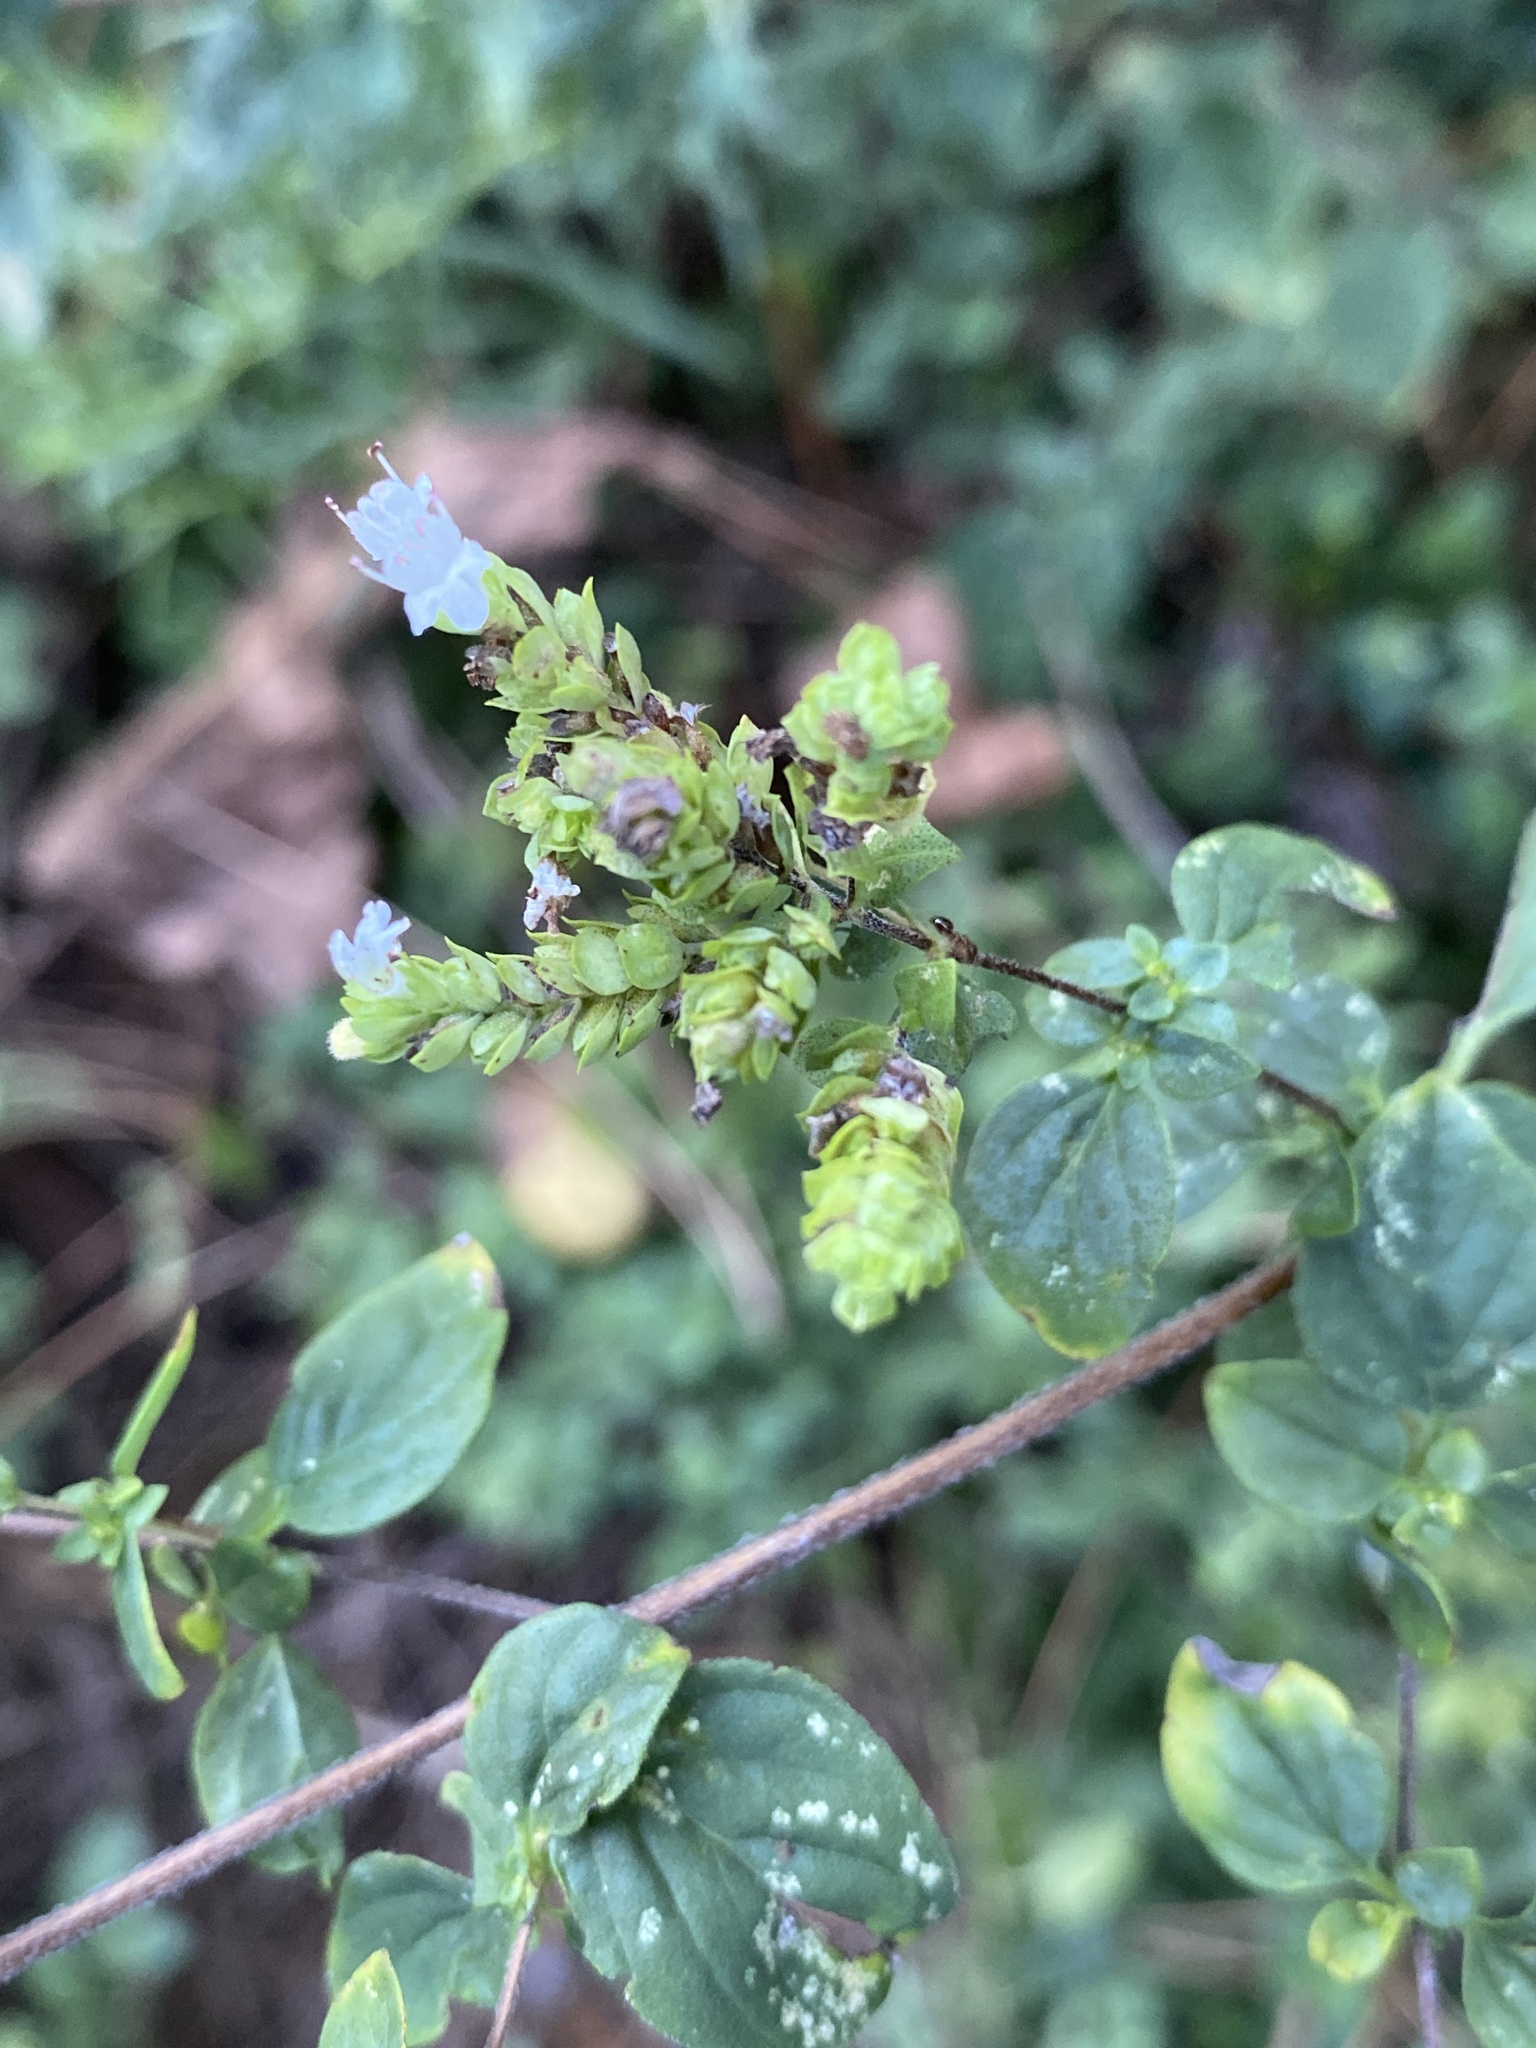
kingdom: Plantae
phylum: Tracheophyta
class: Magnoliopsida
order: Lamiales
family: Lamiaceae
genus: Origanum
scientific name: Origanum vulgare
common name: Wild marjoram
